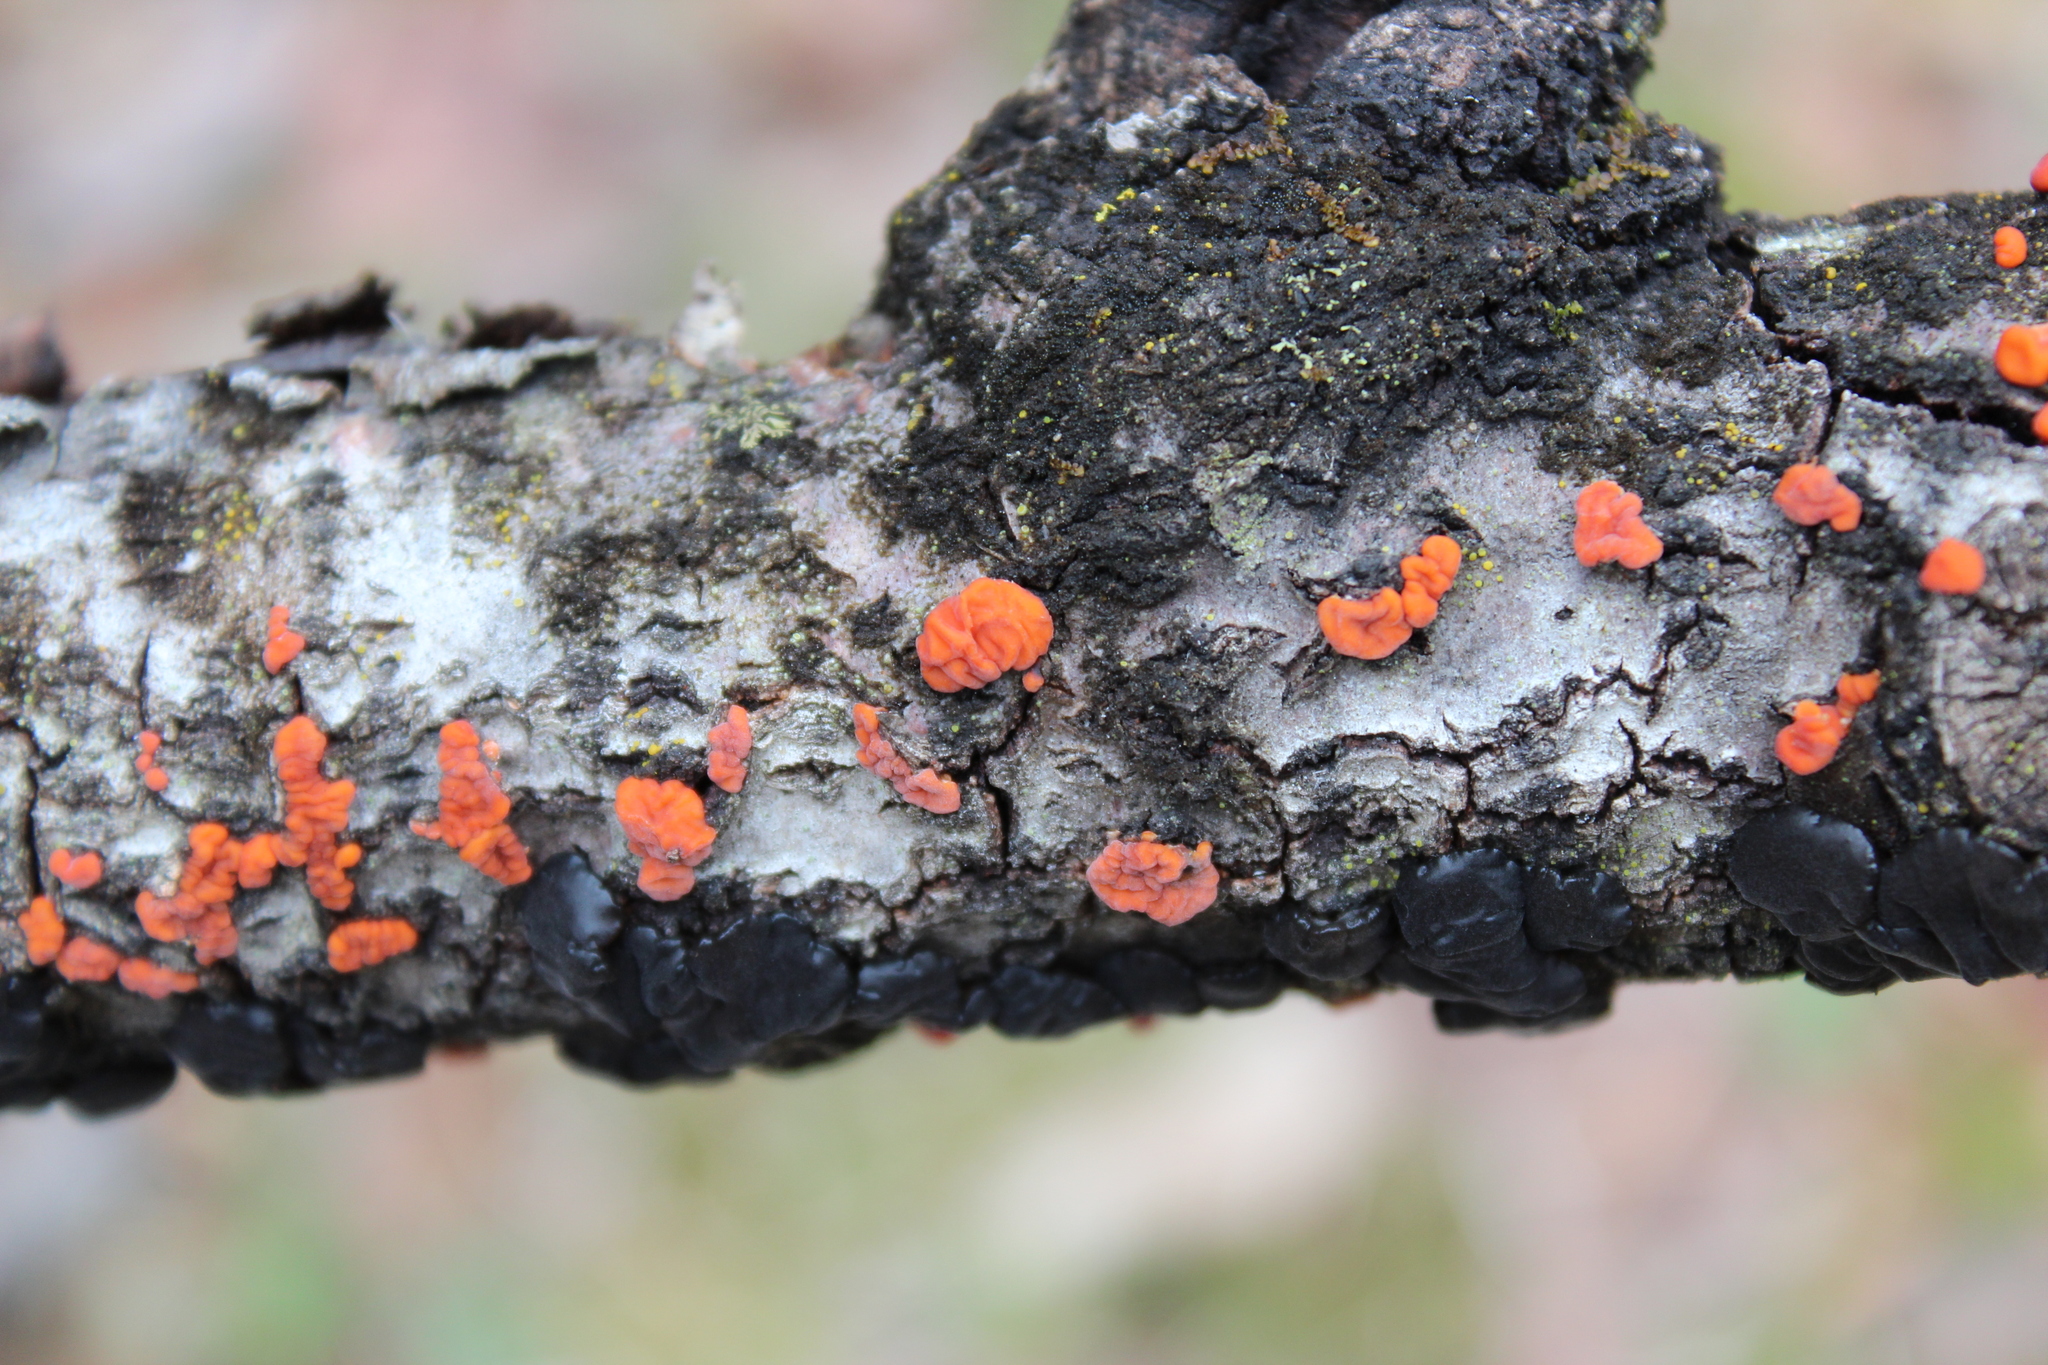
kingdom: Fungi
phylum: Basidiomycota
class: Agaricomycetes
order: Russulales
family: Peniophoraceae
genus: Peniophora
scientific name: Peniophora rufa
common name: Red tree brain fungus
